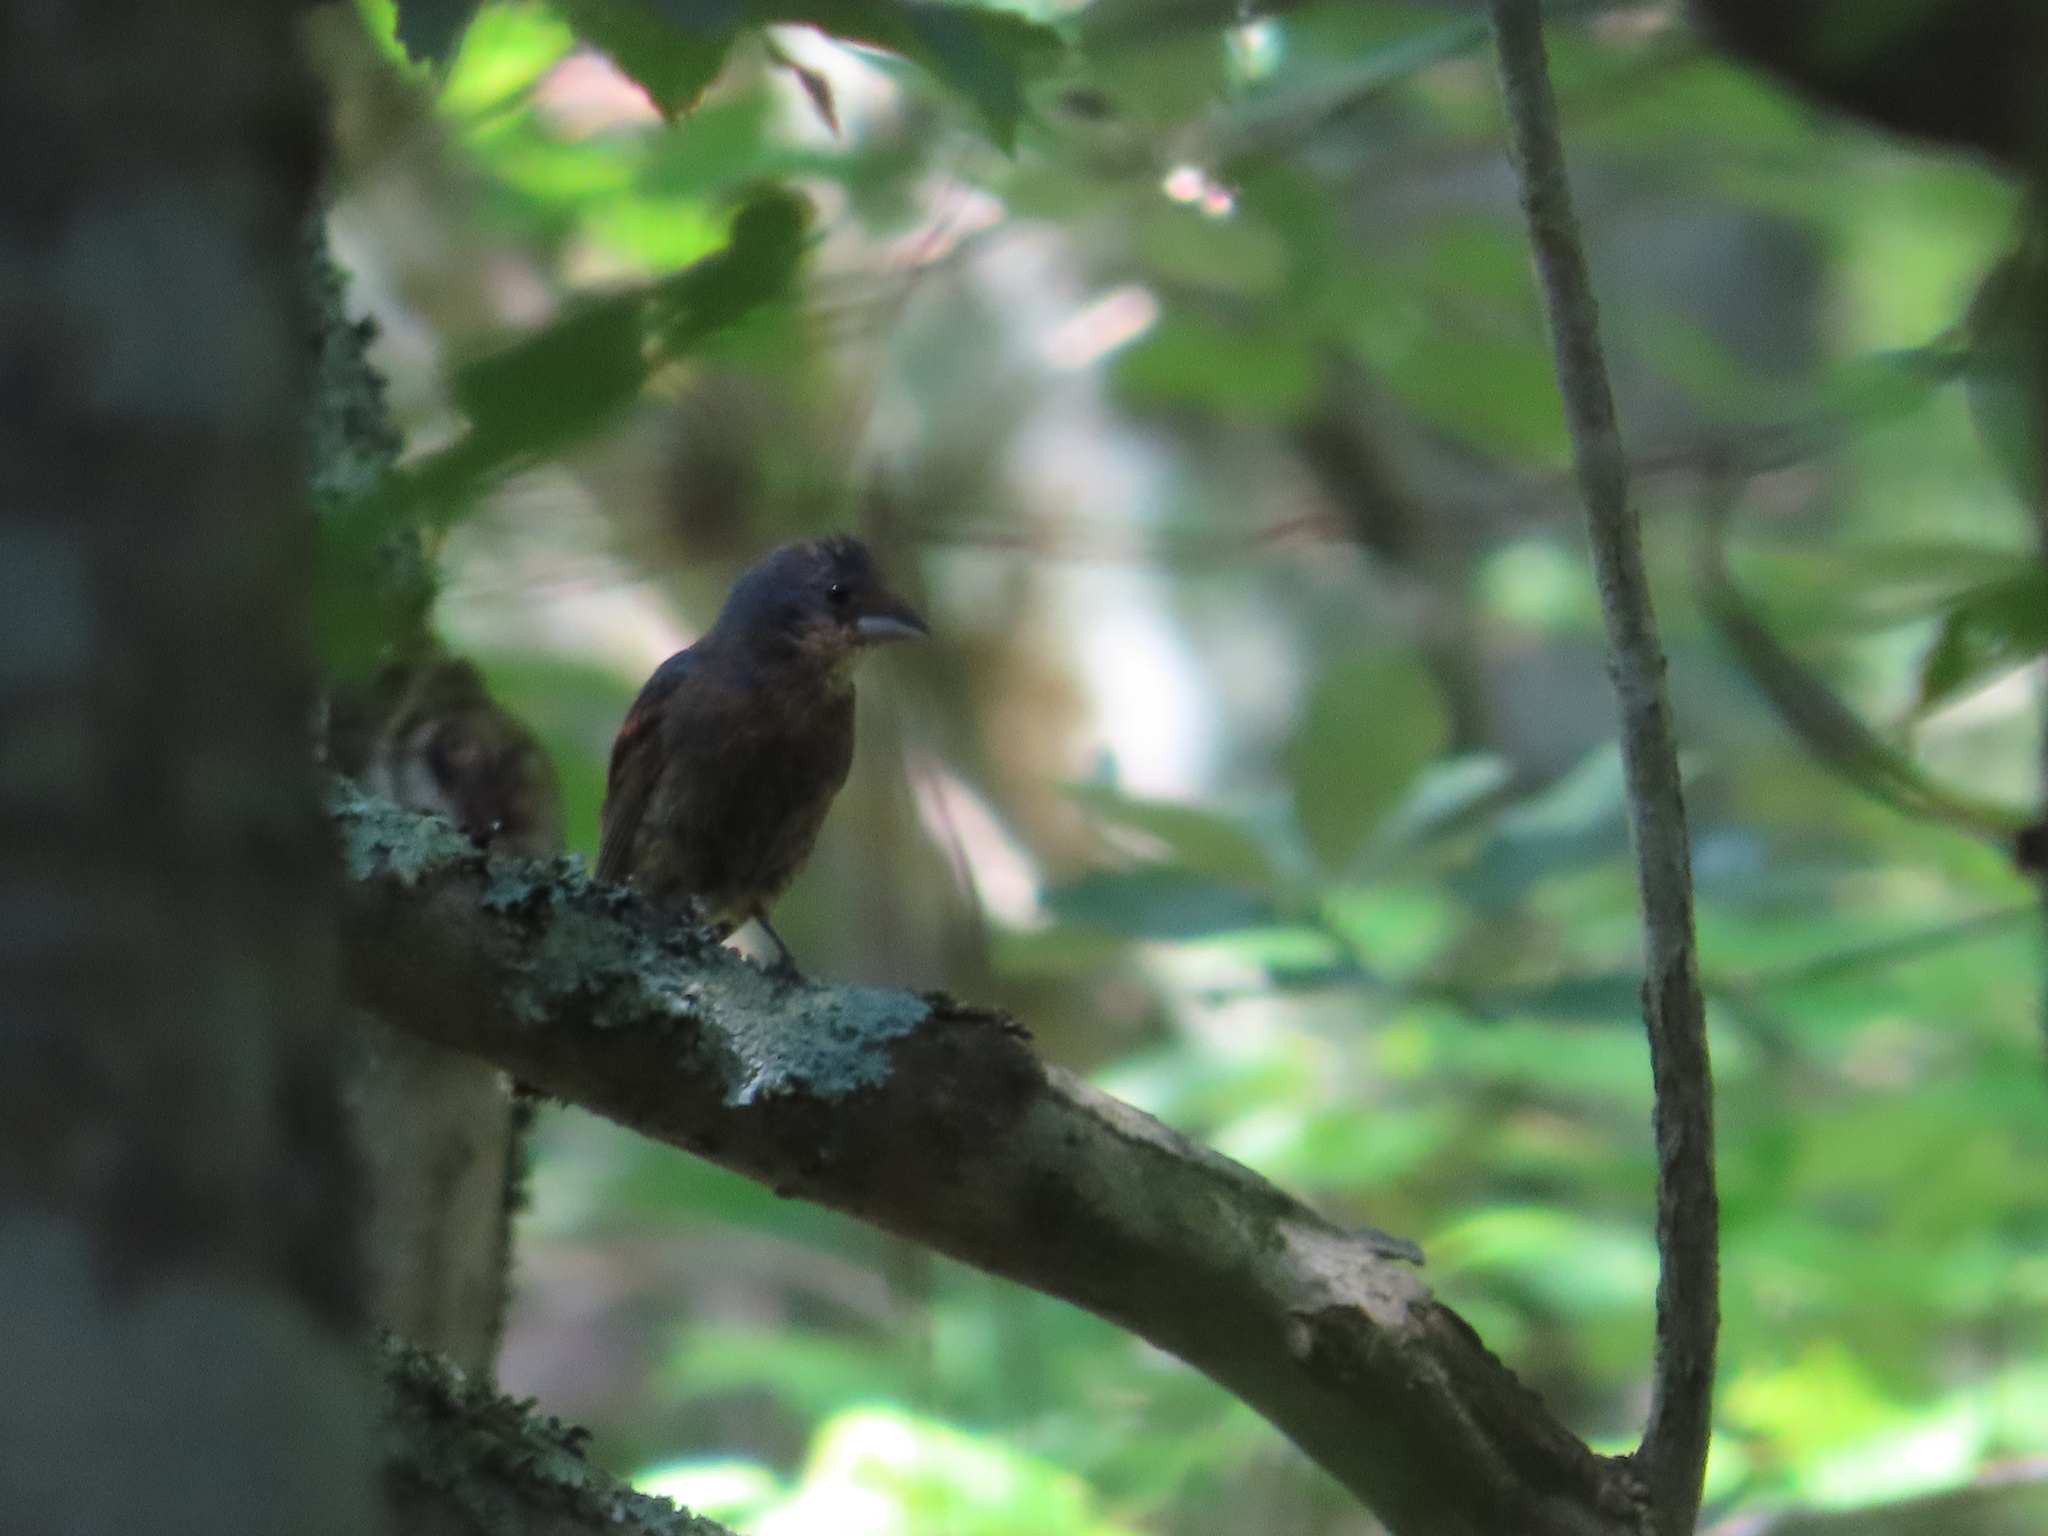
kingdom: Animalia
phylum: Chordata
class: Aves
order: Passeriformes
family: Cardinalidae
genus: Passerina
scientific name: Passerina caerulea
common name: Blue grosbeak
